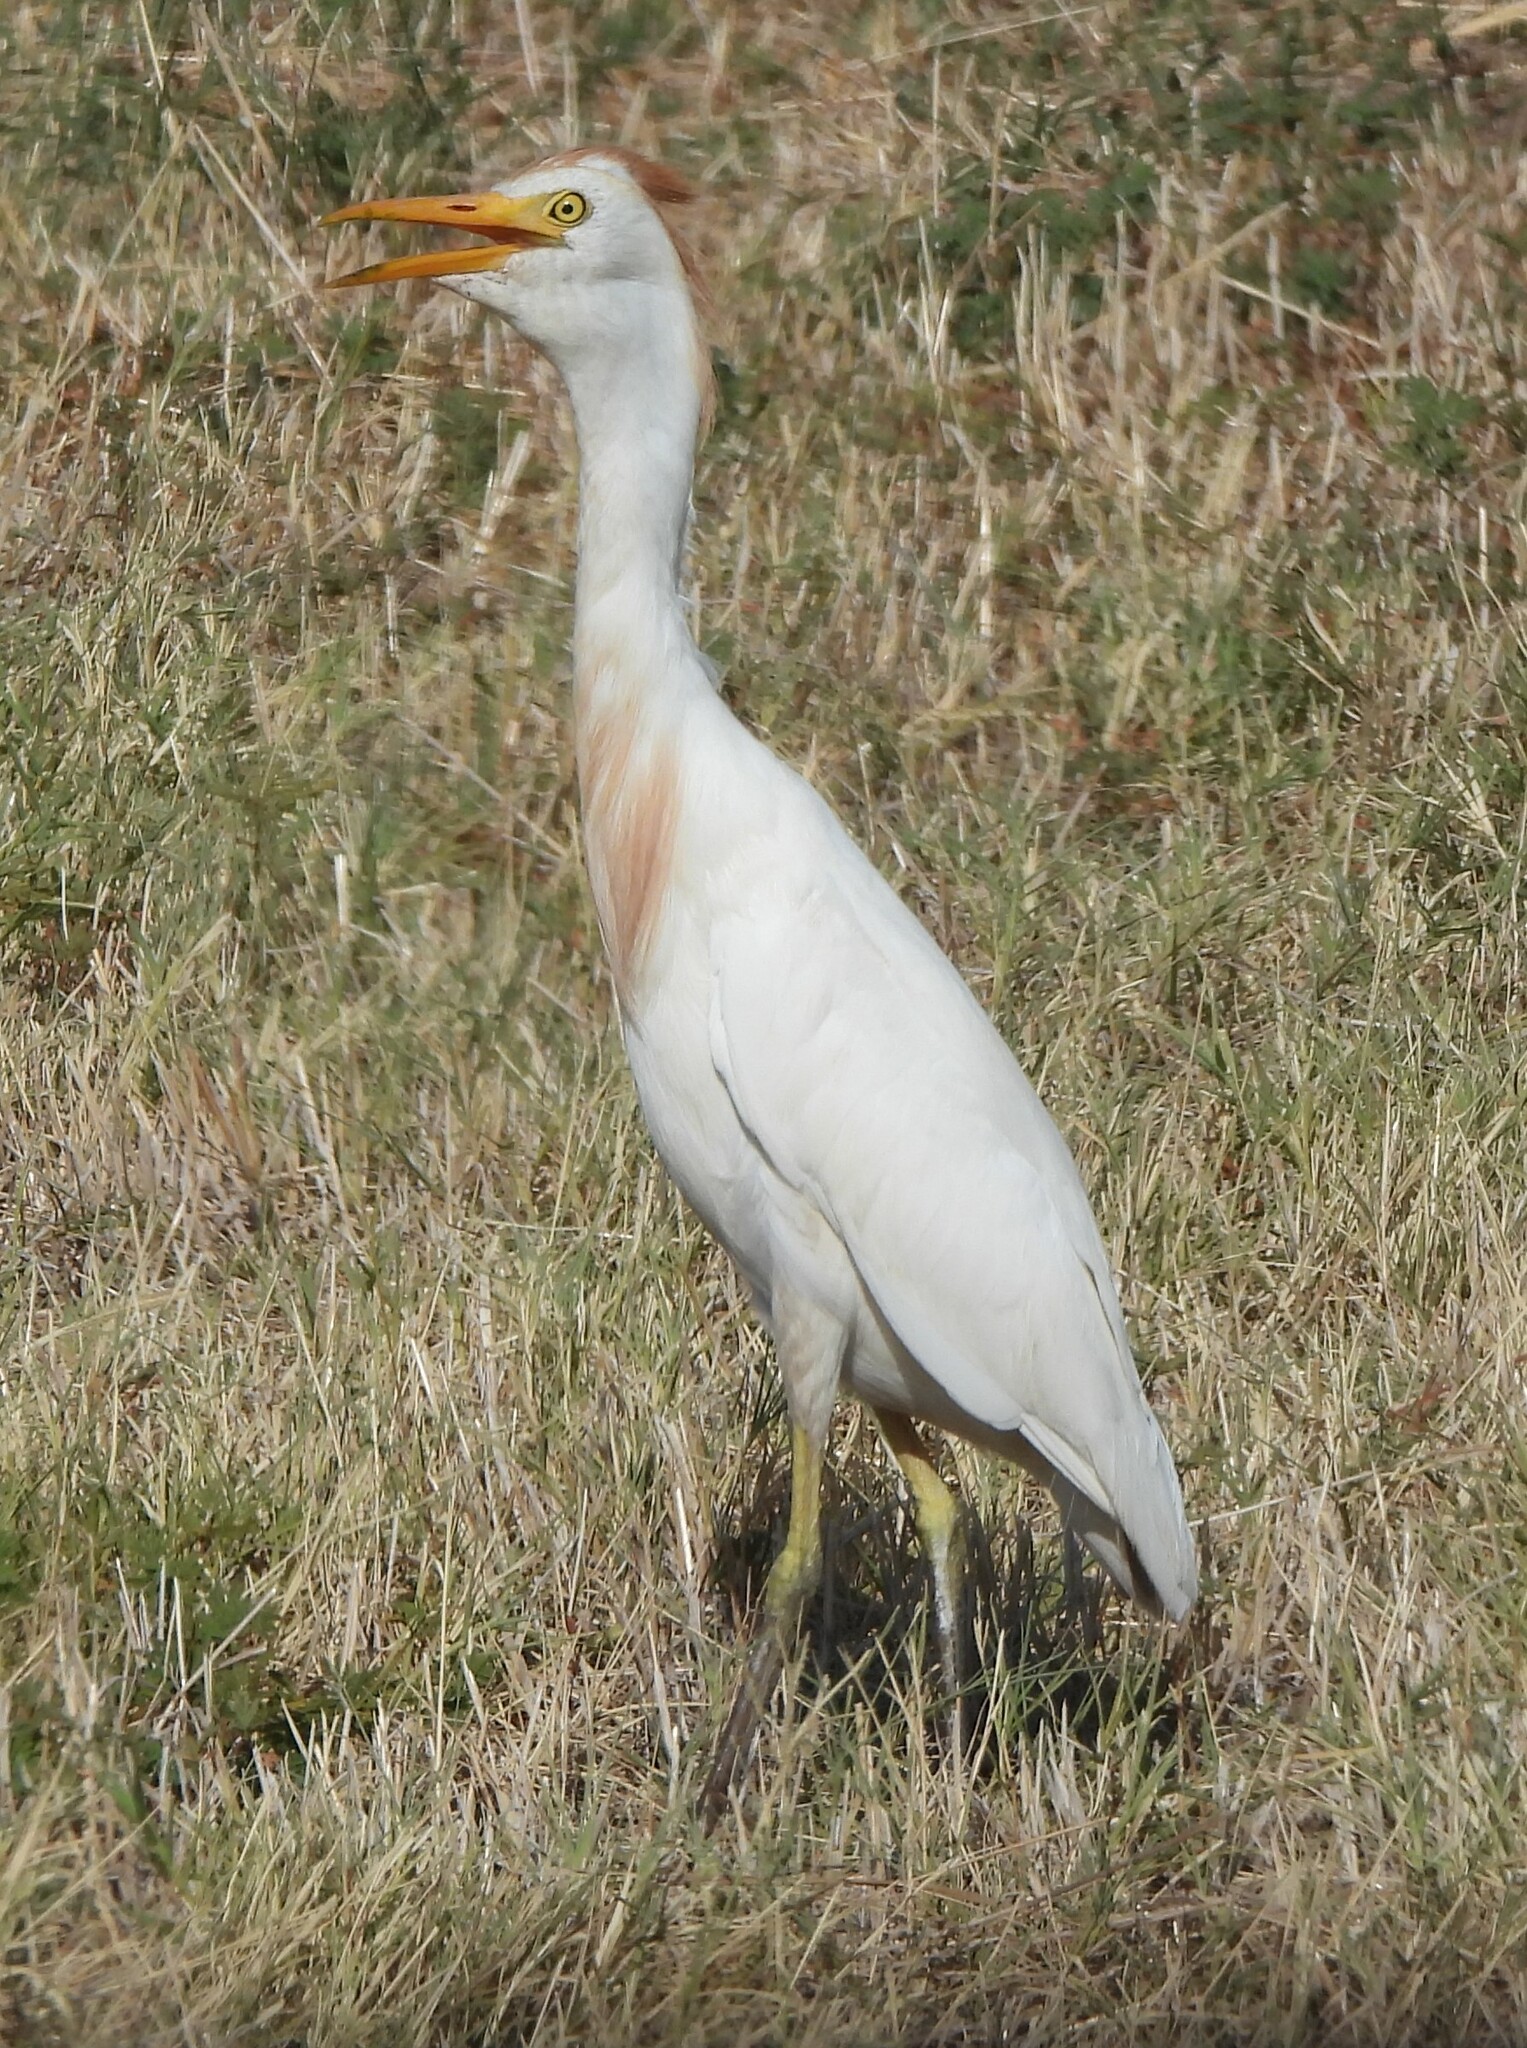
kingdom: Animalia
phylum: Chordata
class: Aves
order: Pelecaniformes
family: Ardeidae
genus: Bubulcus
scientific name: Bubulcus ibis
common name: Cattle egret
